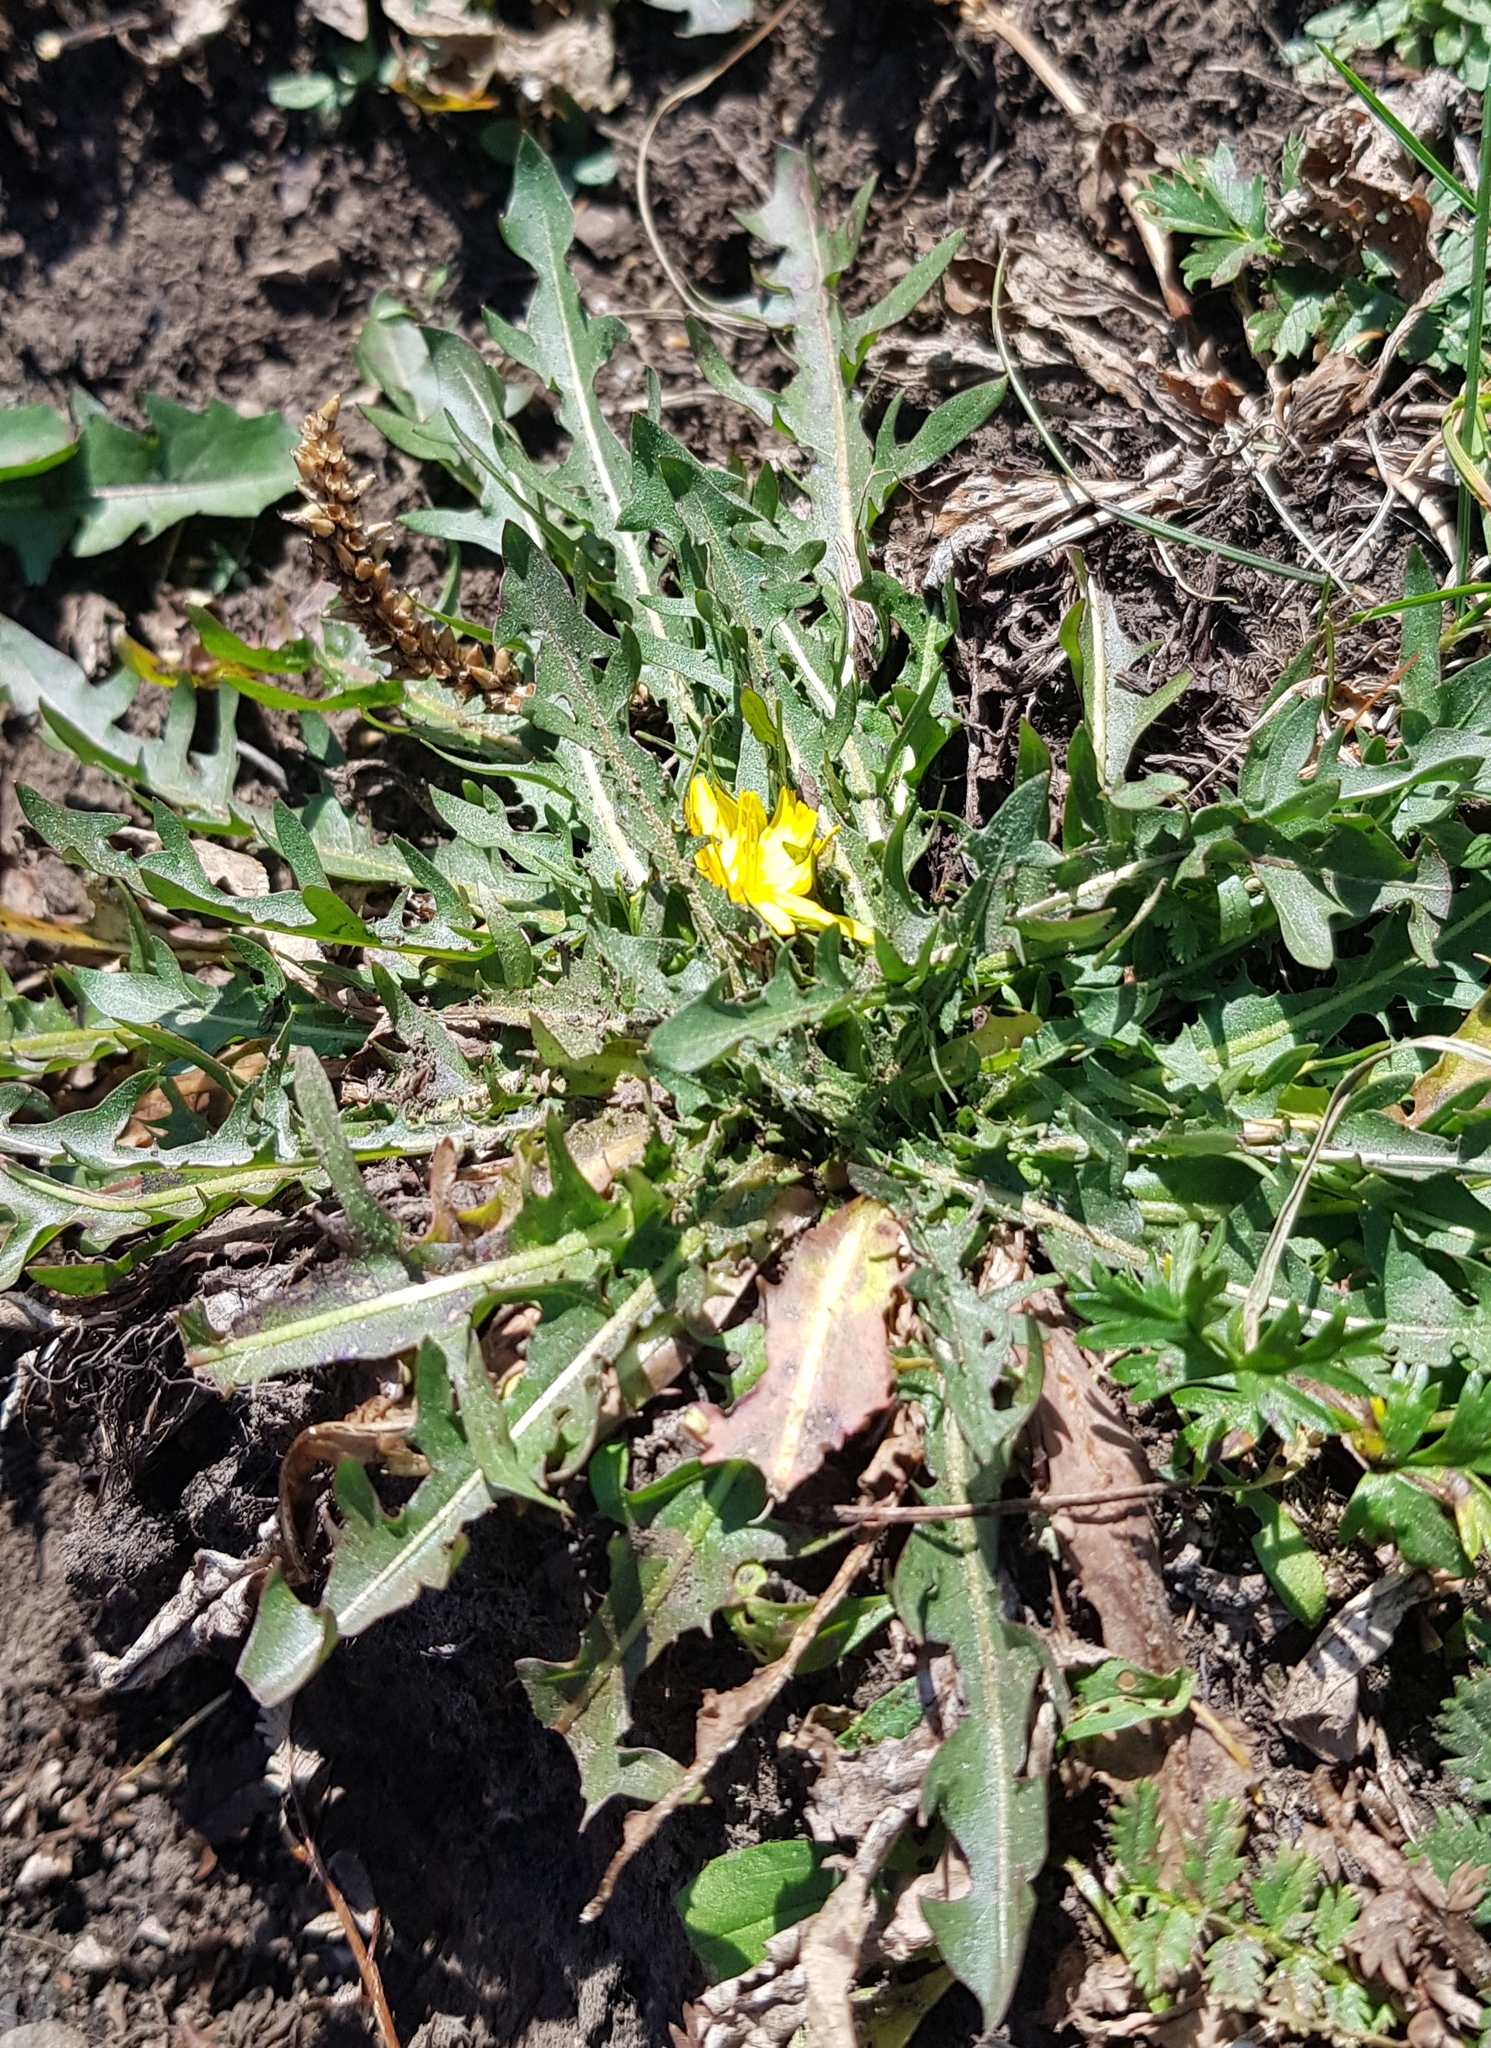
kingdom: Plantae
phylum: Tracheophyta
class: Magnoliopsida
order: Asterales
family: Asteraceae
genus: Taraxacum
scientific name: Taraxacum officinale
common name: Common dandelion
